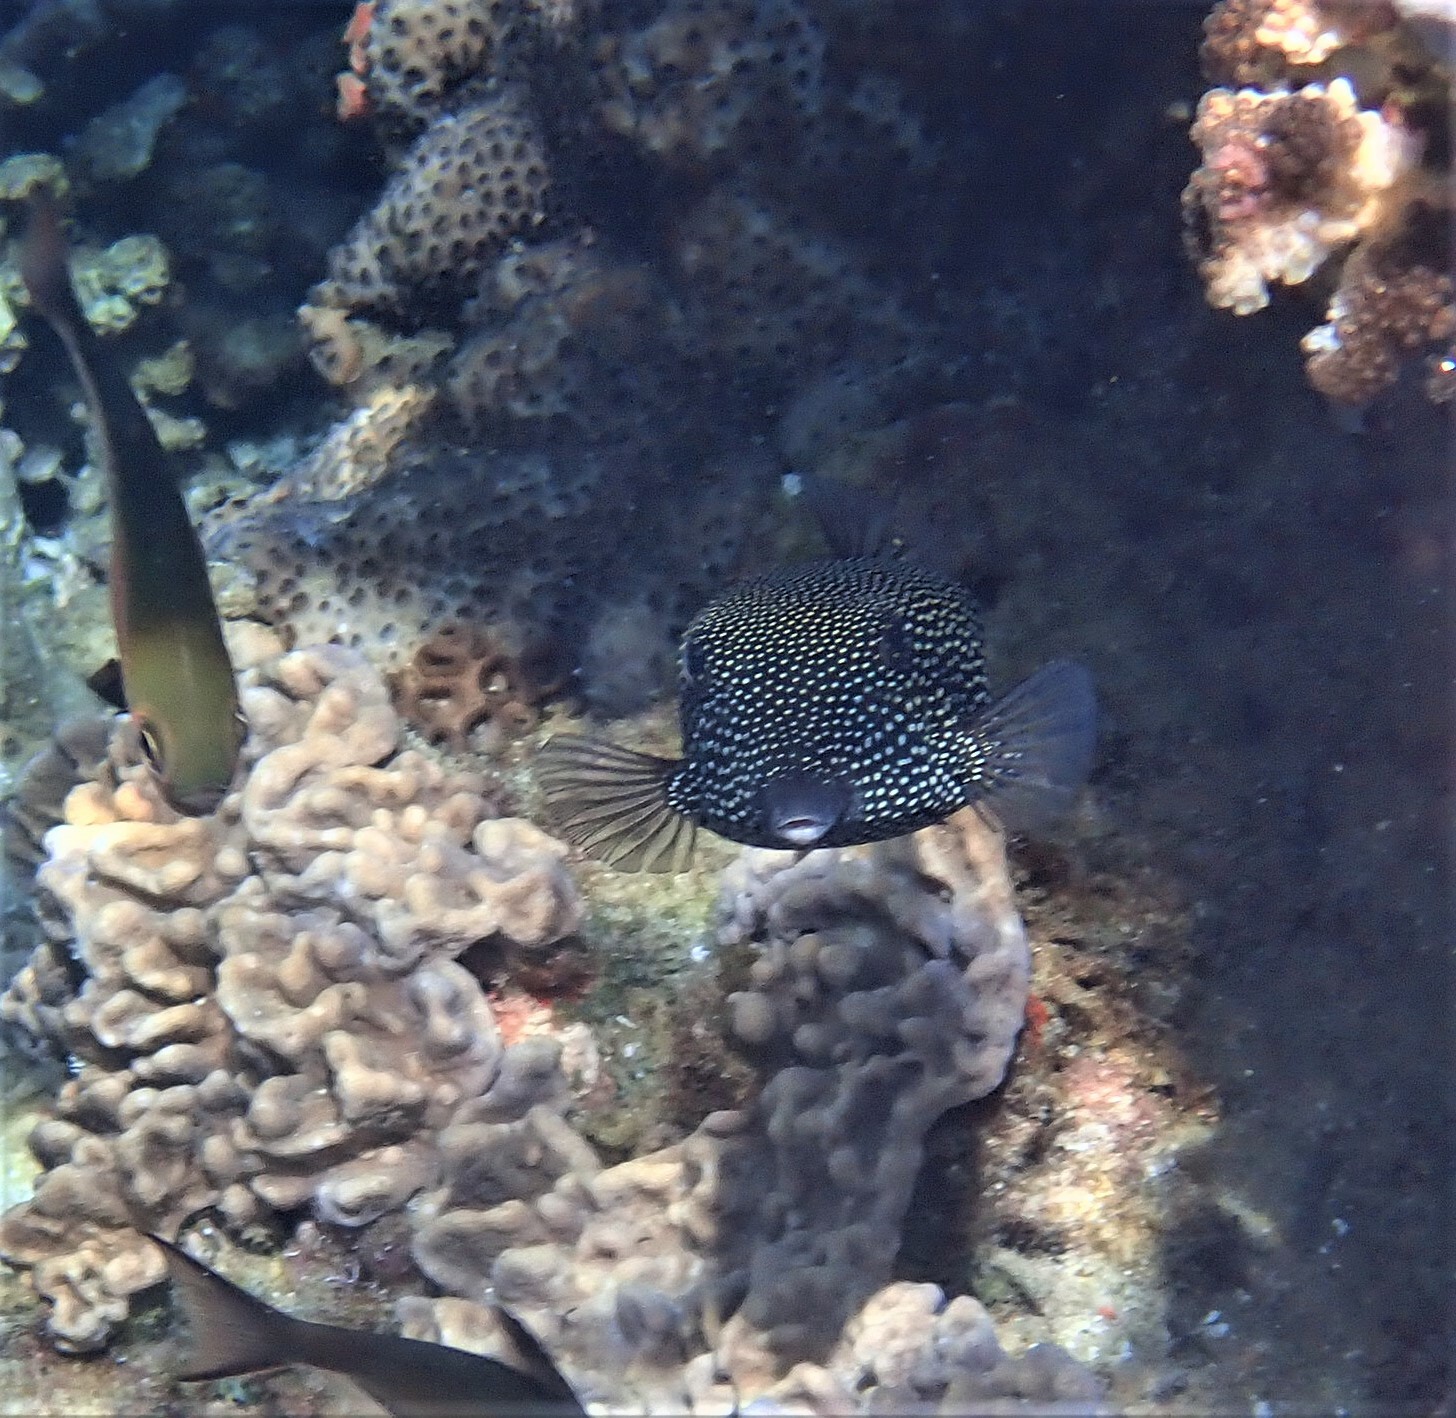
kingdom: Animalia
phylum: Chordata
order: Tetraodontiformes
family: Ostraciidae
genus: Ostracion
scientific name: Ostracion meleagris
